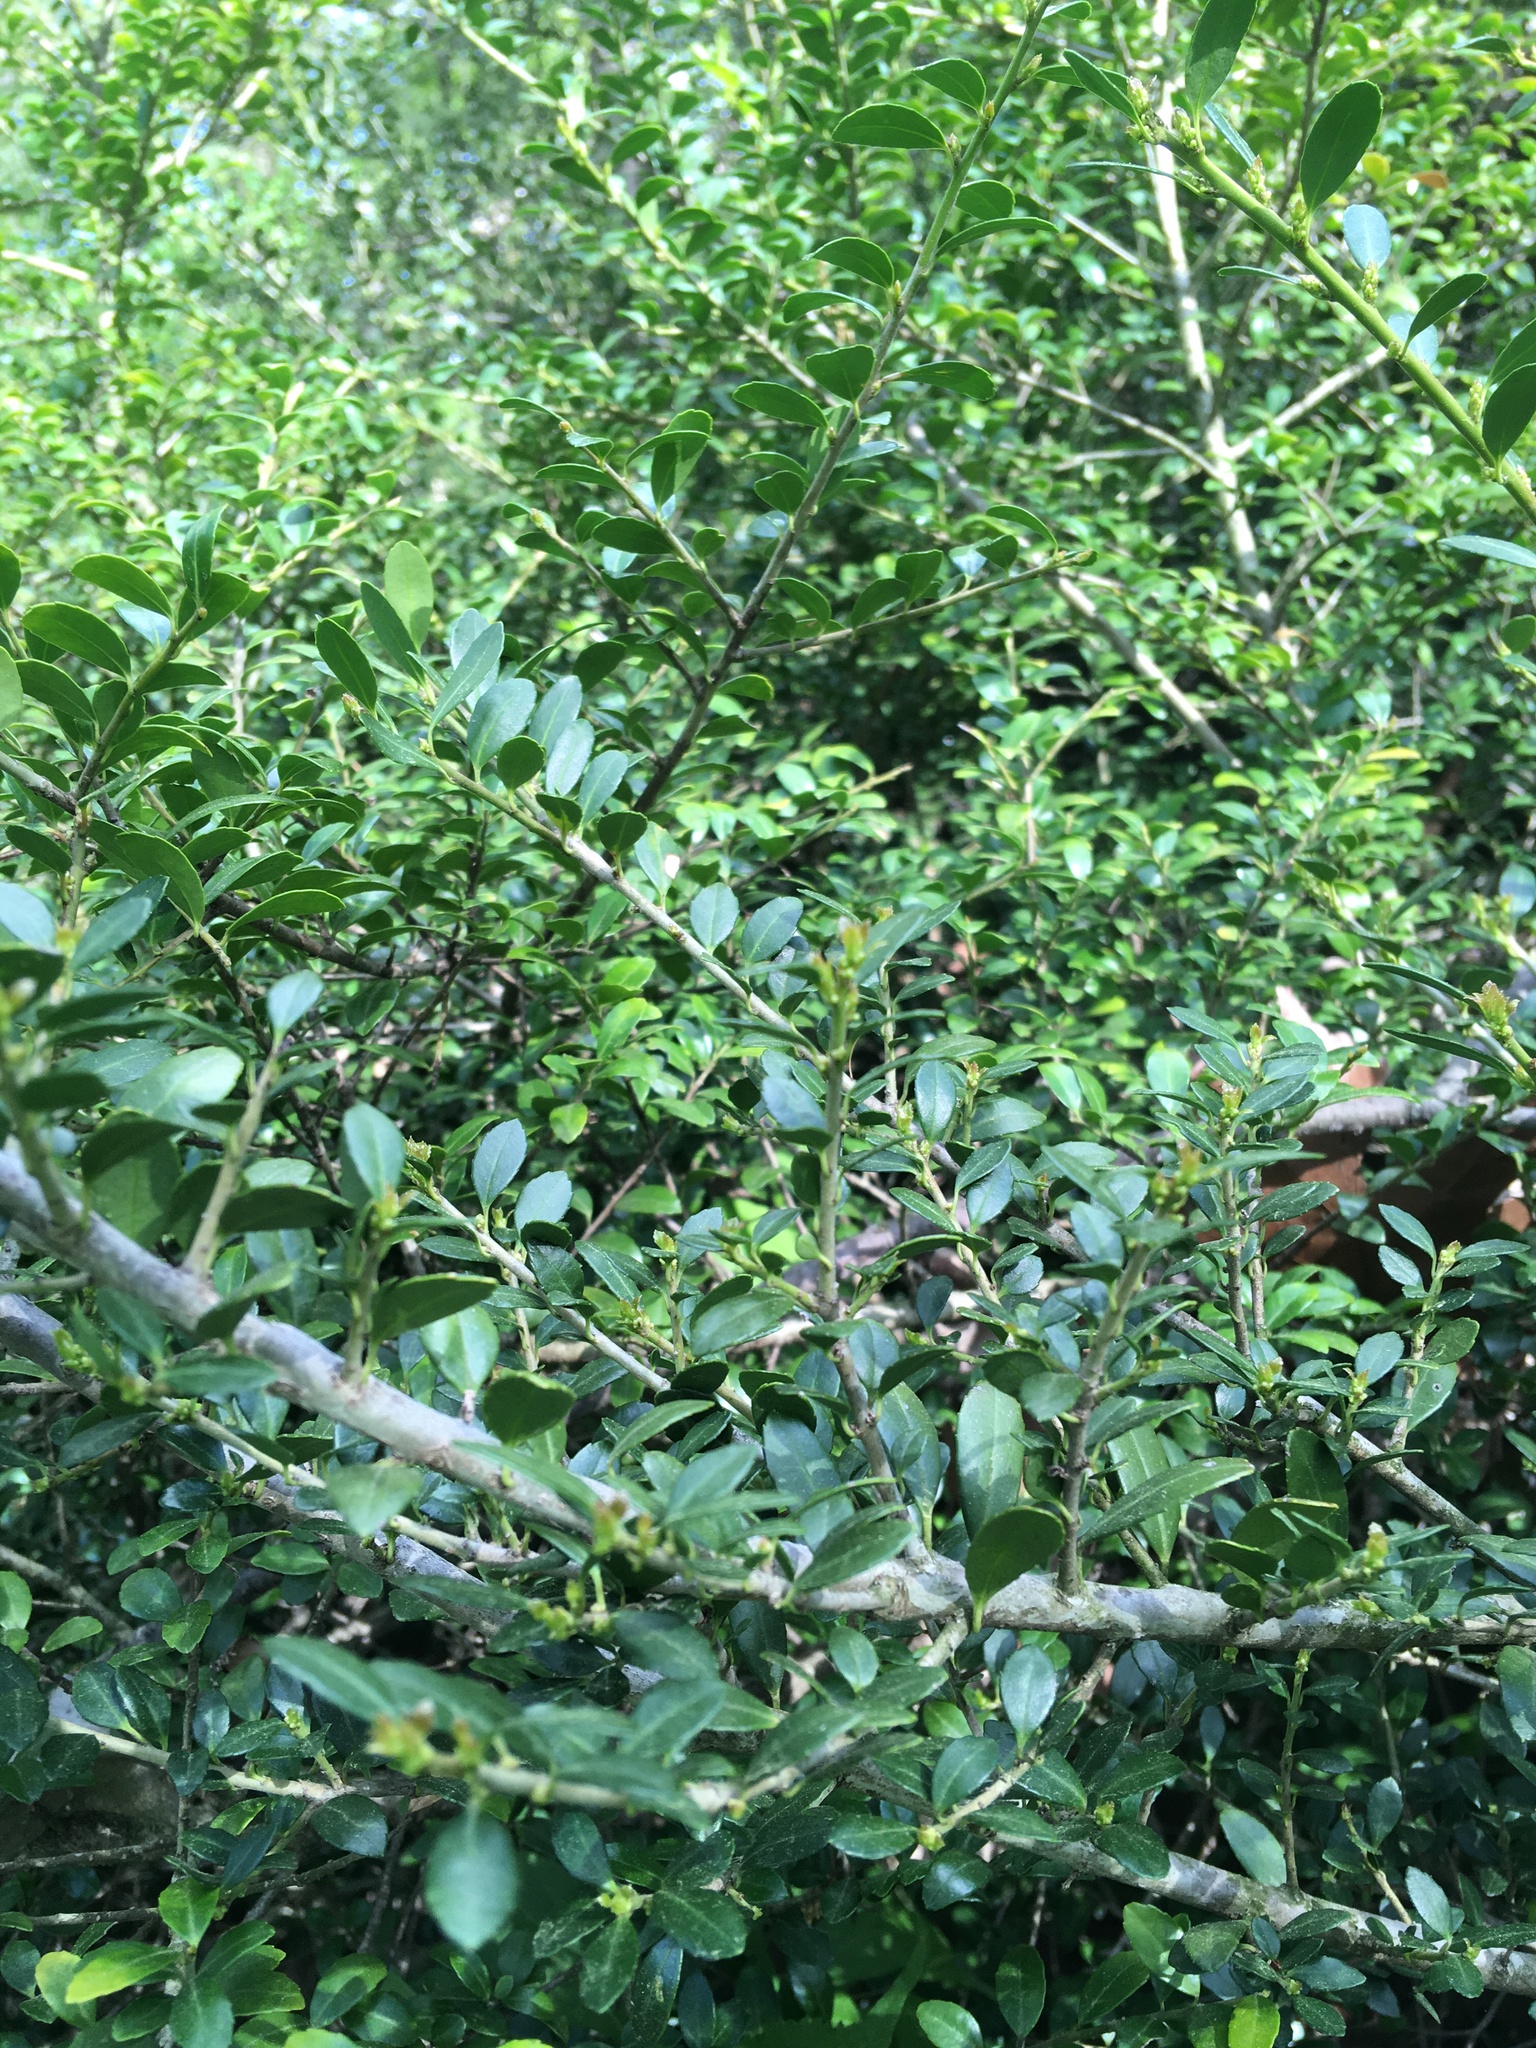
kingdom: Plantae
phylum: Tracheophyta
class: Magnoliopsida
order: Aquifoliales
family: Aquifoliaceae
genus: Ilex
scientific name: Ilex crenata
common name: Japanese holly
